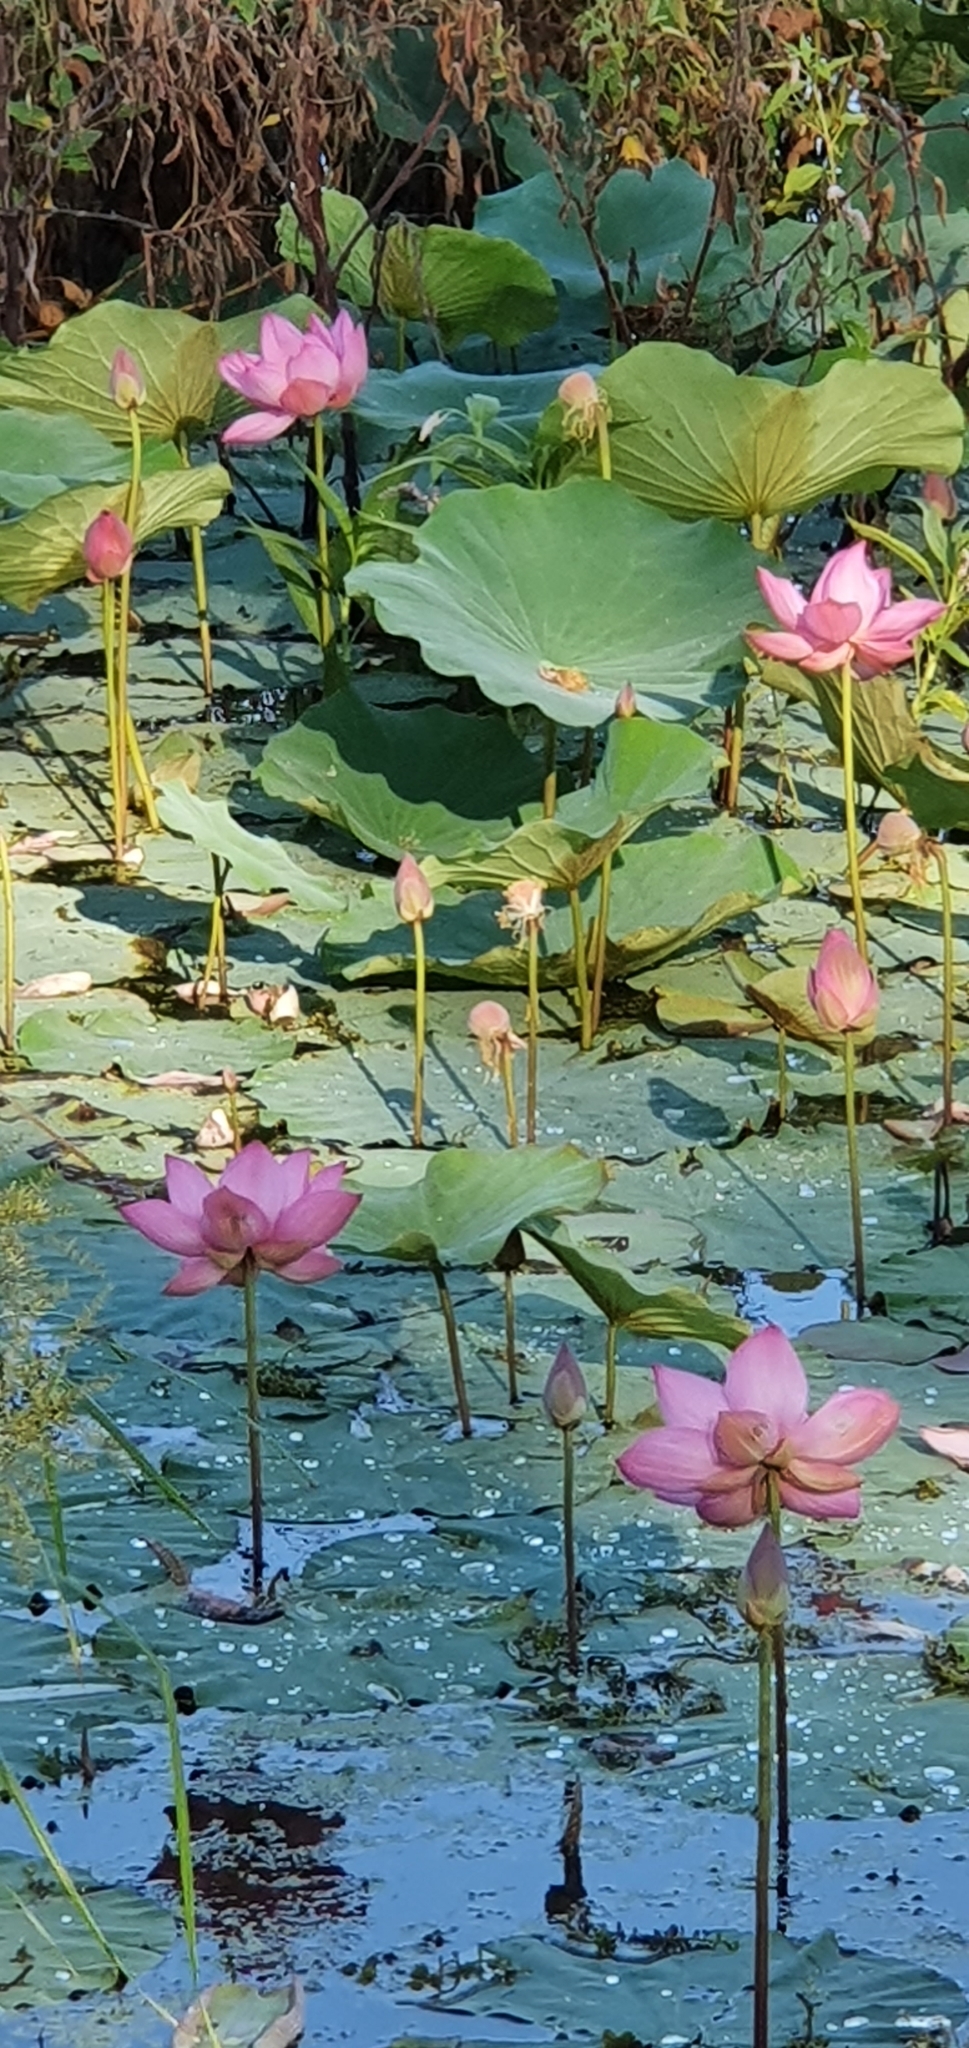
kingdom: Plantae
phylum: Tracheophyta
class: Magnoliopsida
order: Proteales
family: Nelumbonaceae
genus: Nelumbo
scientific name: Nelumbo nucifera
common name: Sacred lotus
